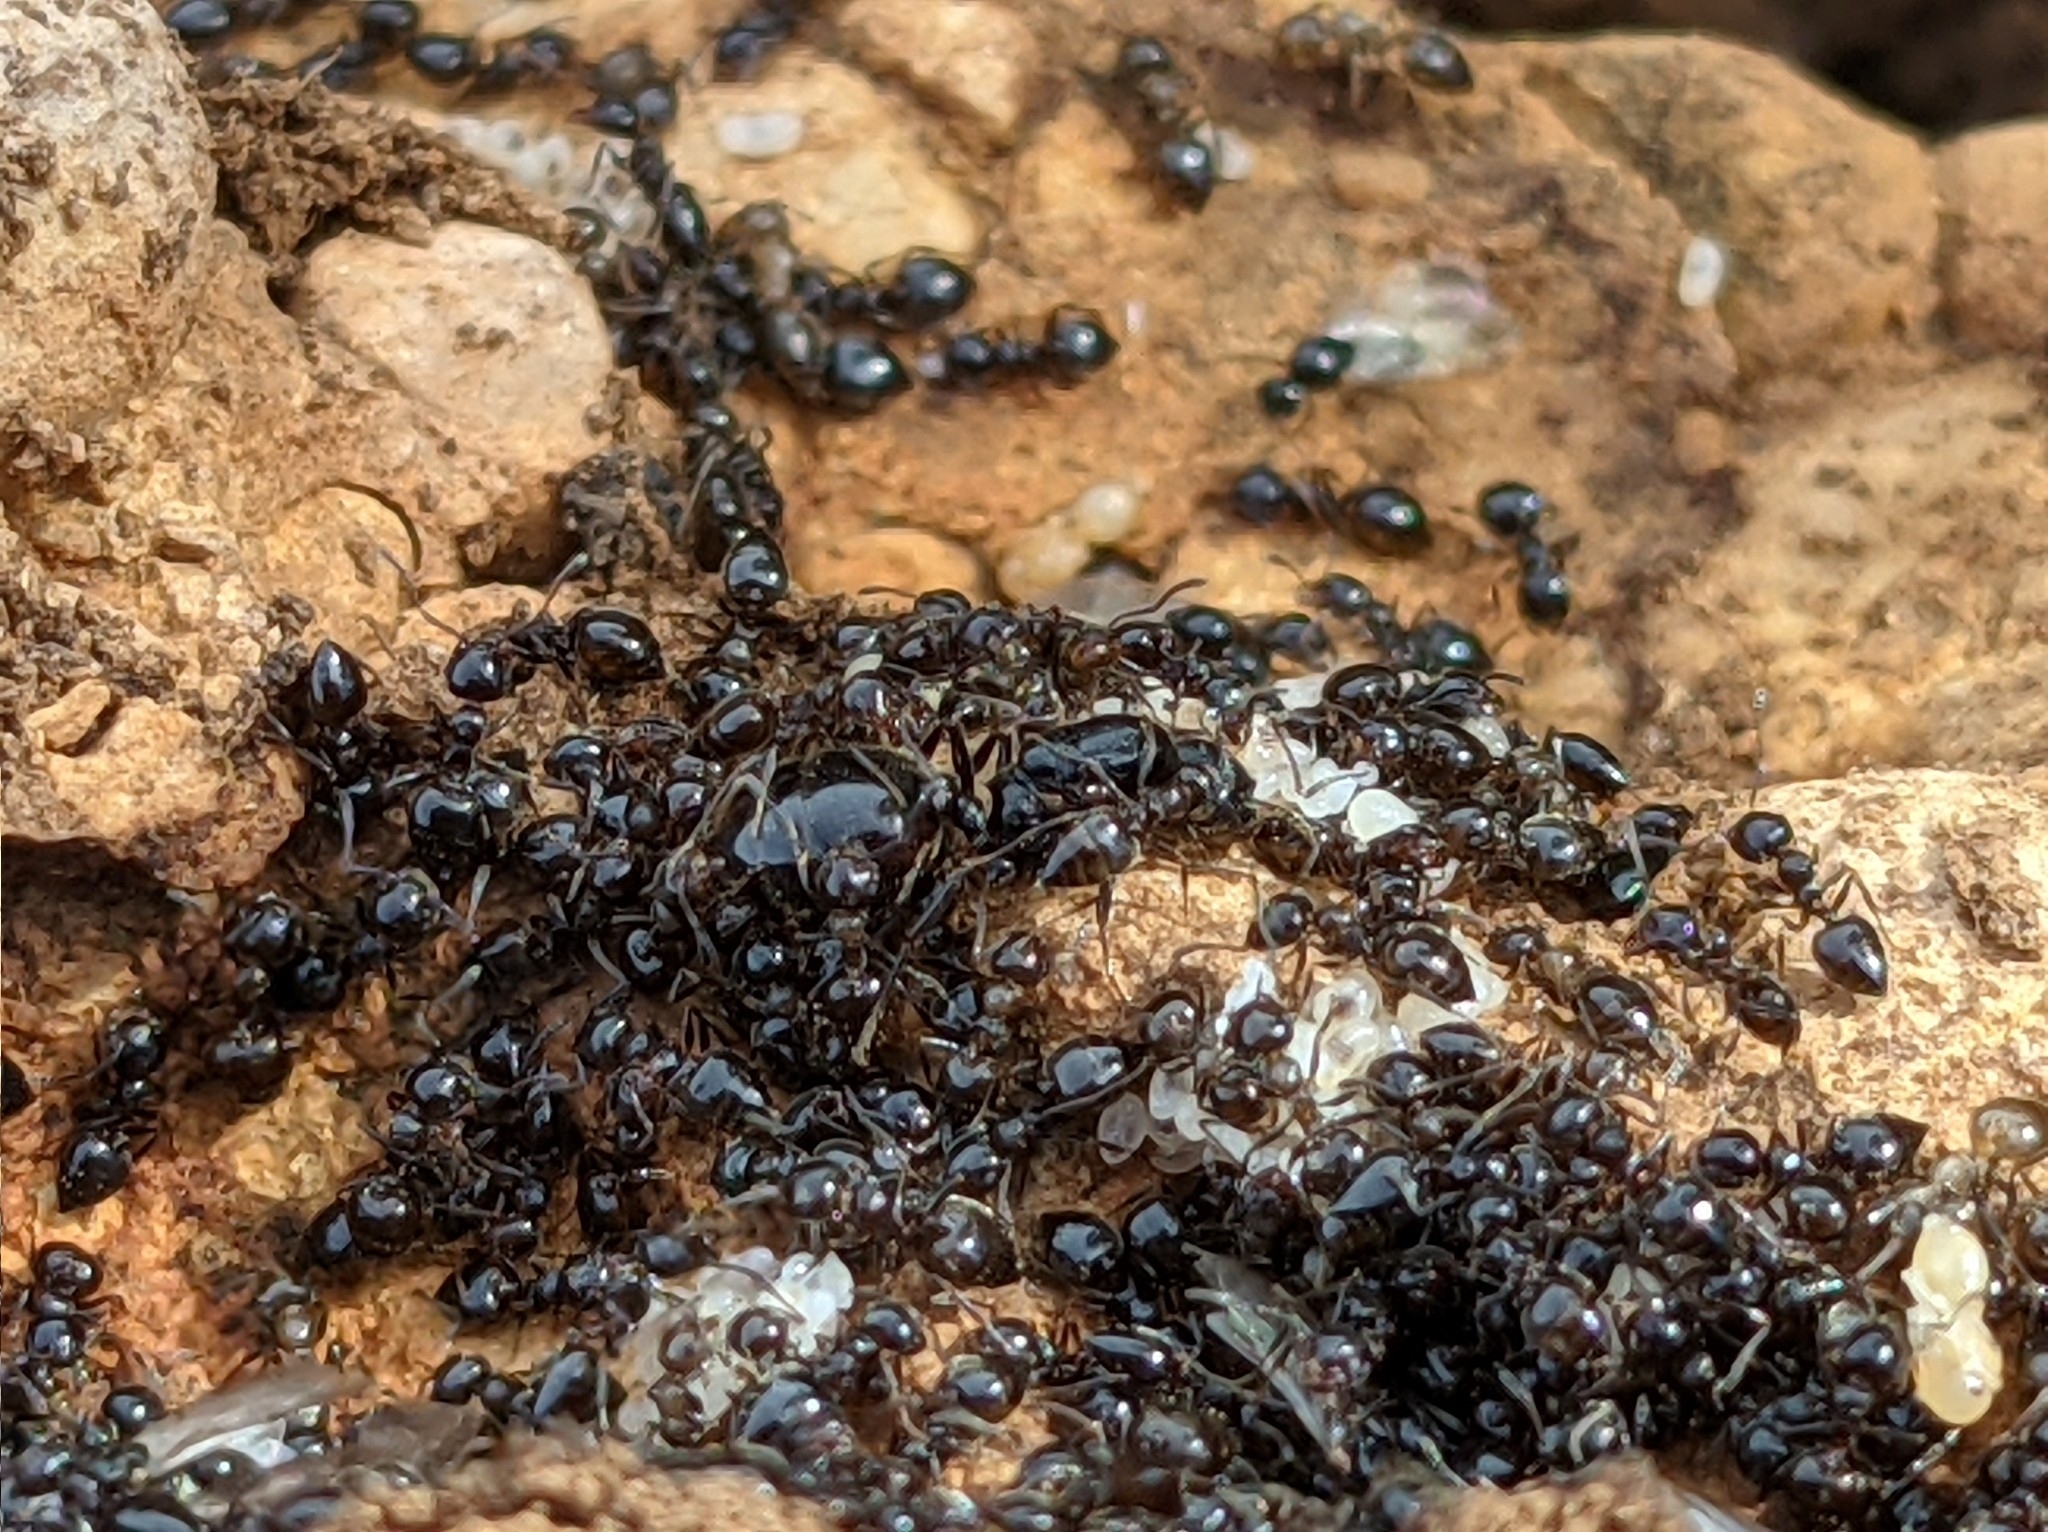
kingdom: Animalia
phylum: Arthropoda
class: Insecta
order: Hymenoptera
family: Formicidae
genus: Crematogaster
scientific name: Crematogaster auberti
